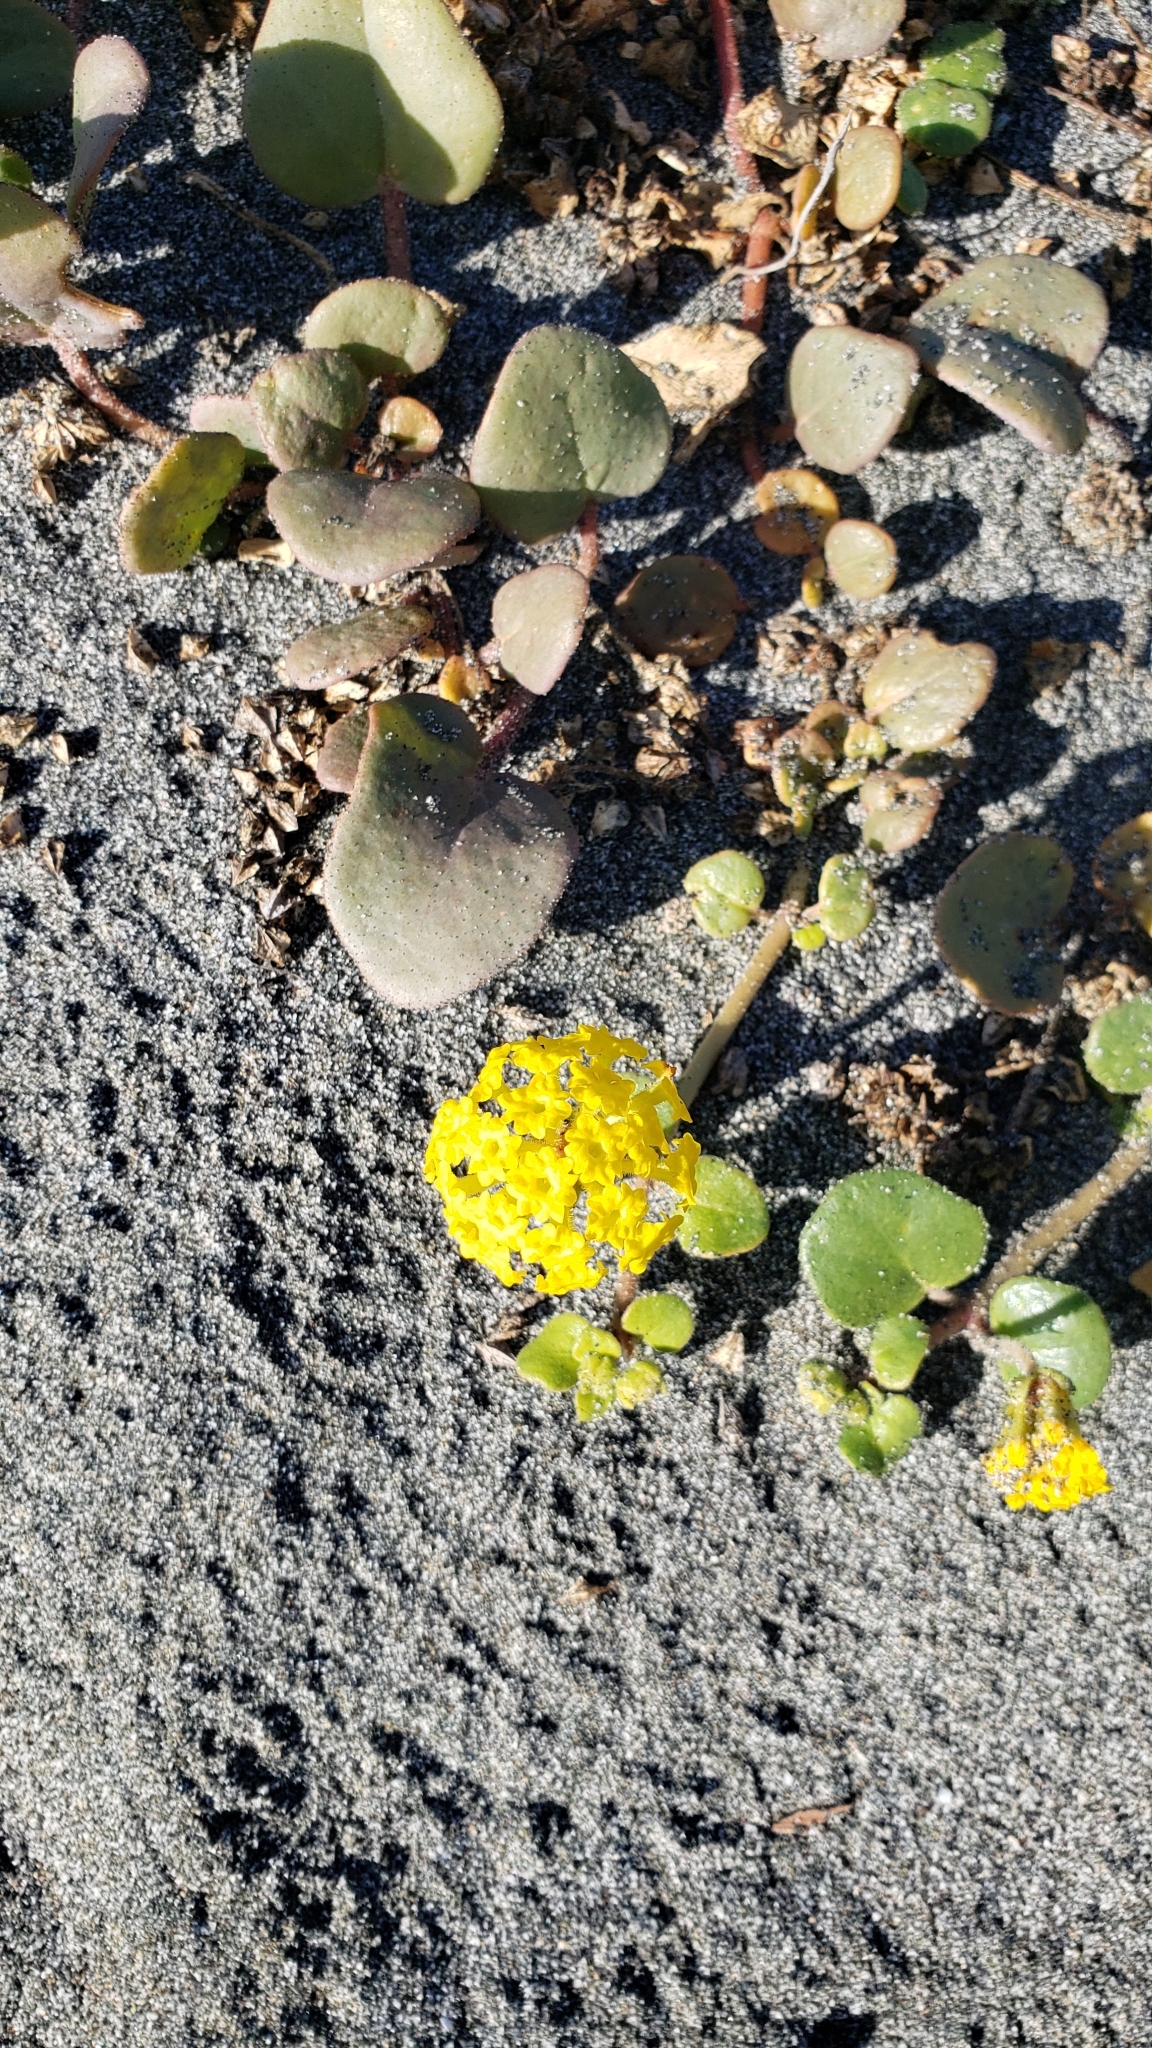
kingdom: Plantae
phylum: Tracheophyta
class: Magnoliopsida
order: Caryophyllales
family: Nyctaginaceae
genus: Abronia
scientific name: Abronia latifolia
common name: Yellow sand-verbena
